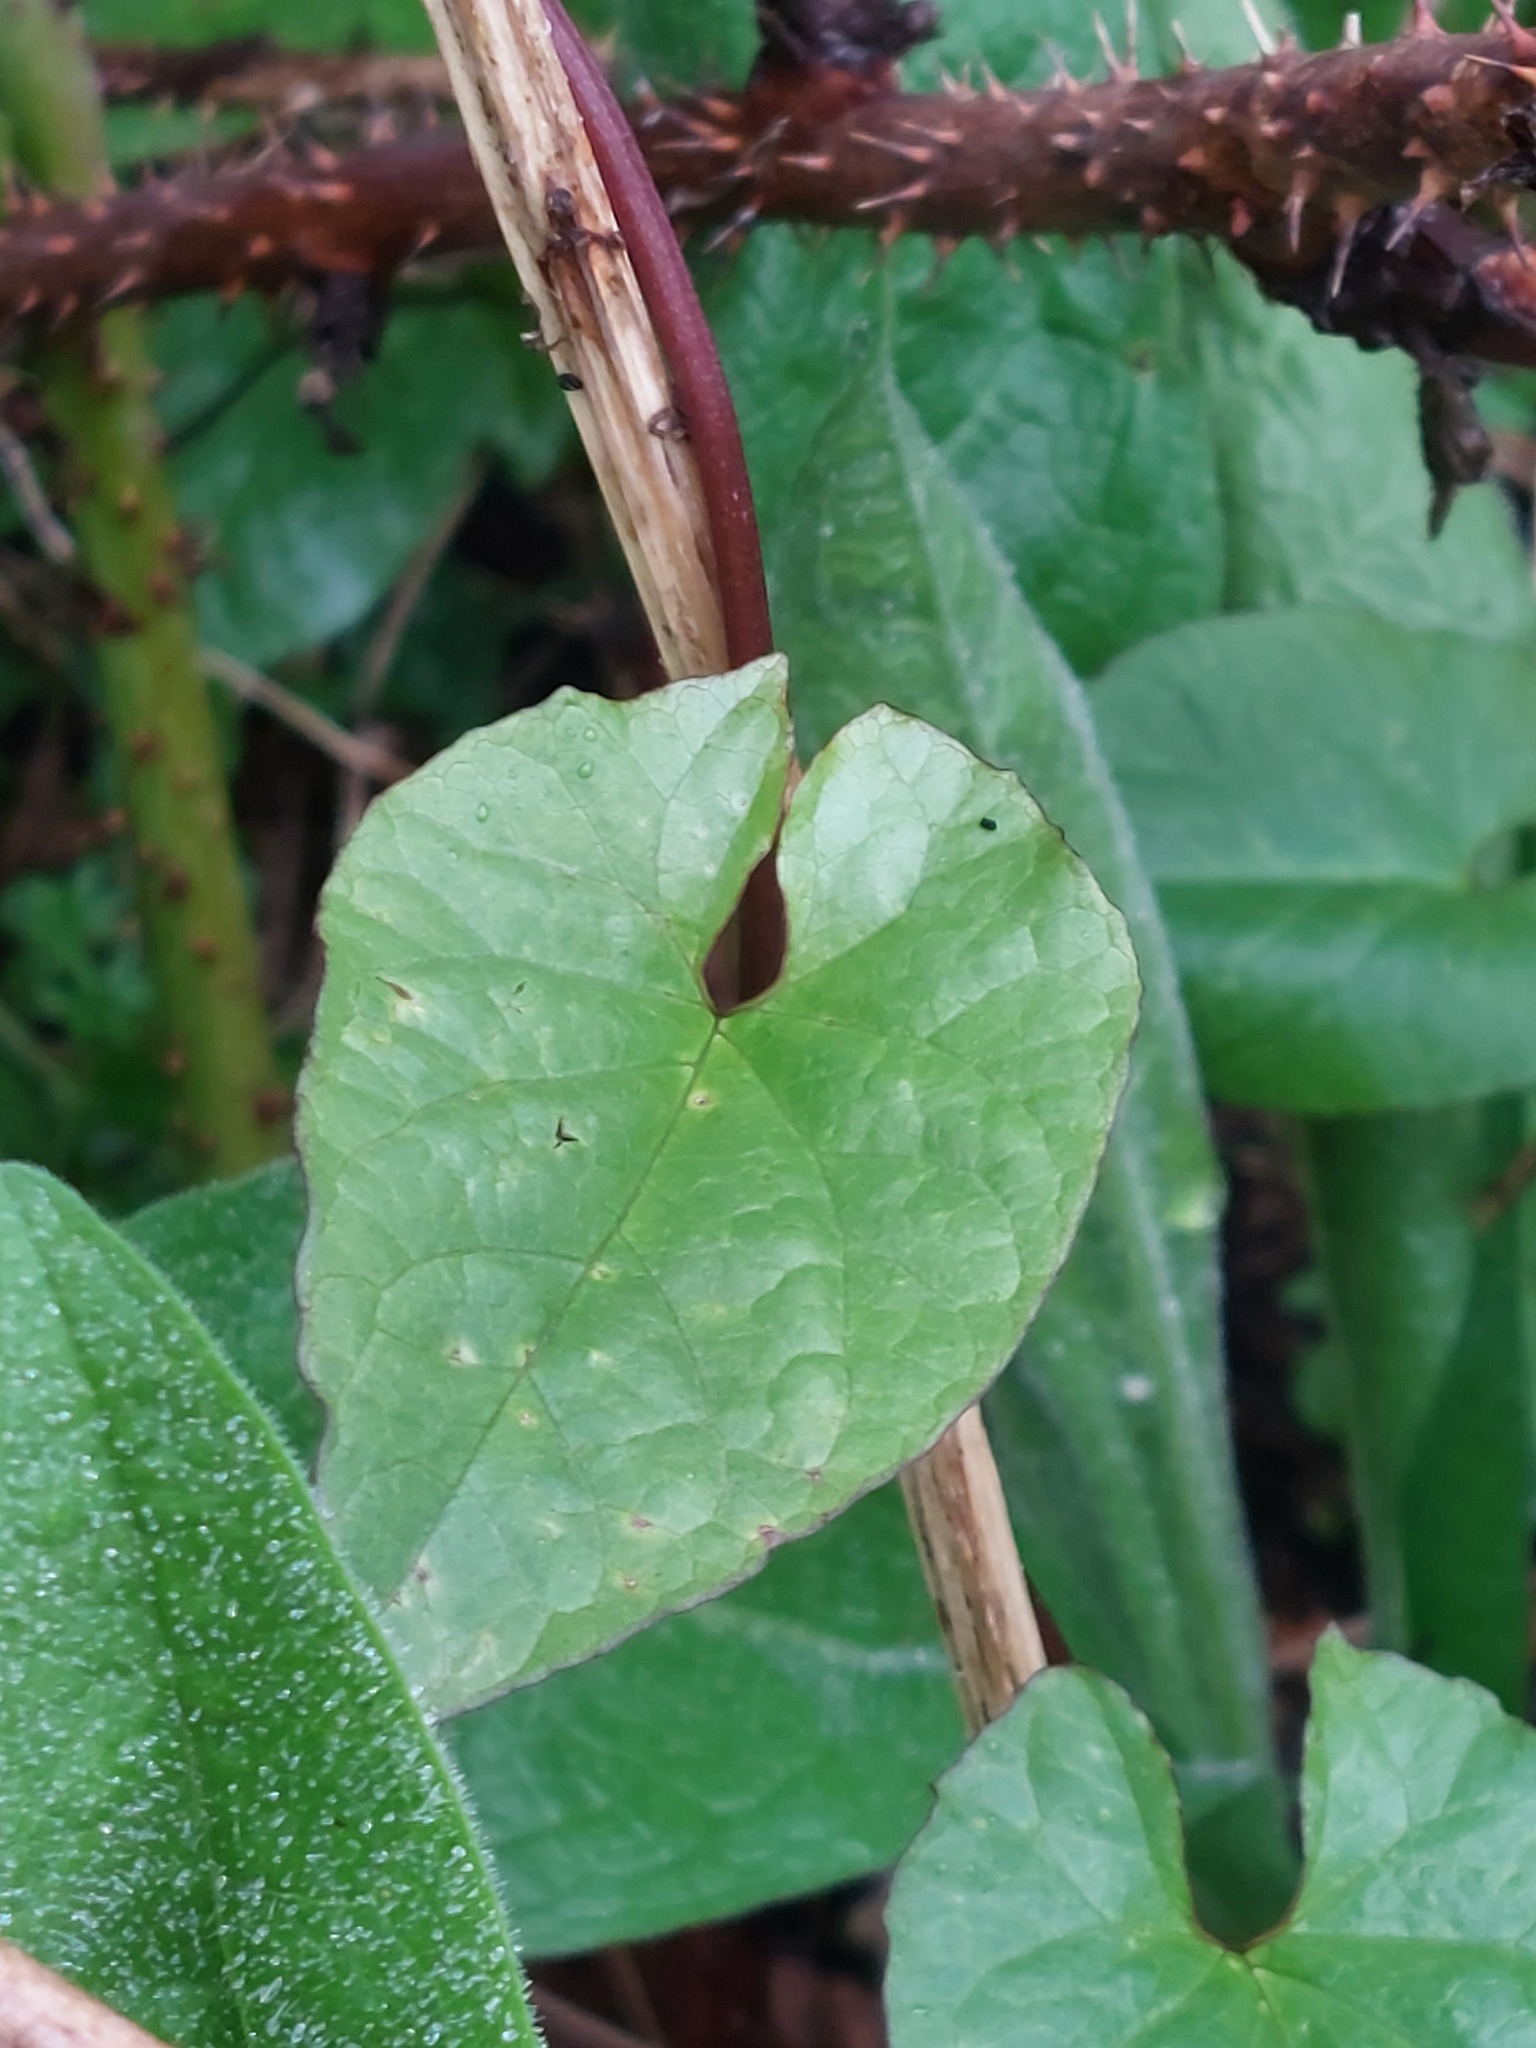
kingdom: Plantae
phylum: Tracheophyta
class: Magnoliopsida
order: Solanales
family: Convolvulaceae
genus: Calystegia
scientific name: Calystegia silvatica
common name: Large bindweed
